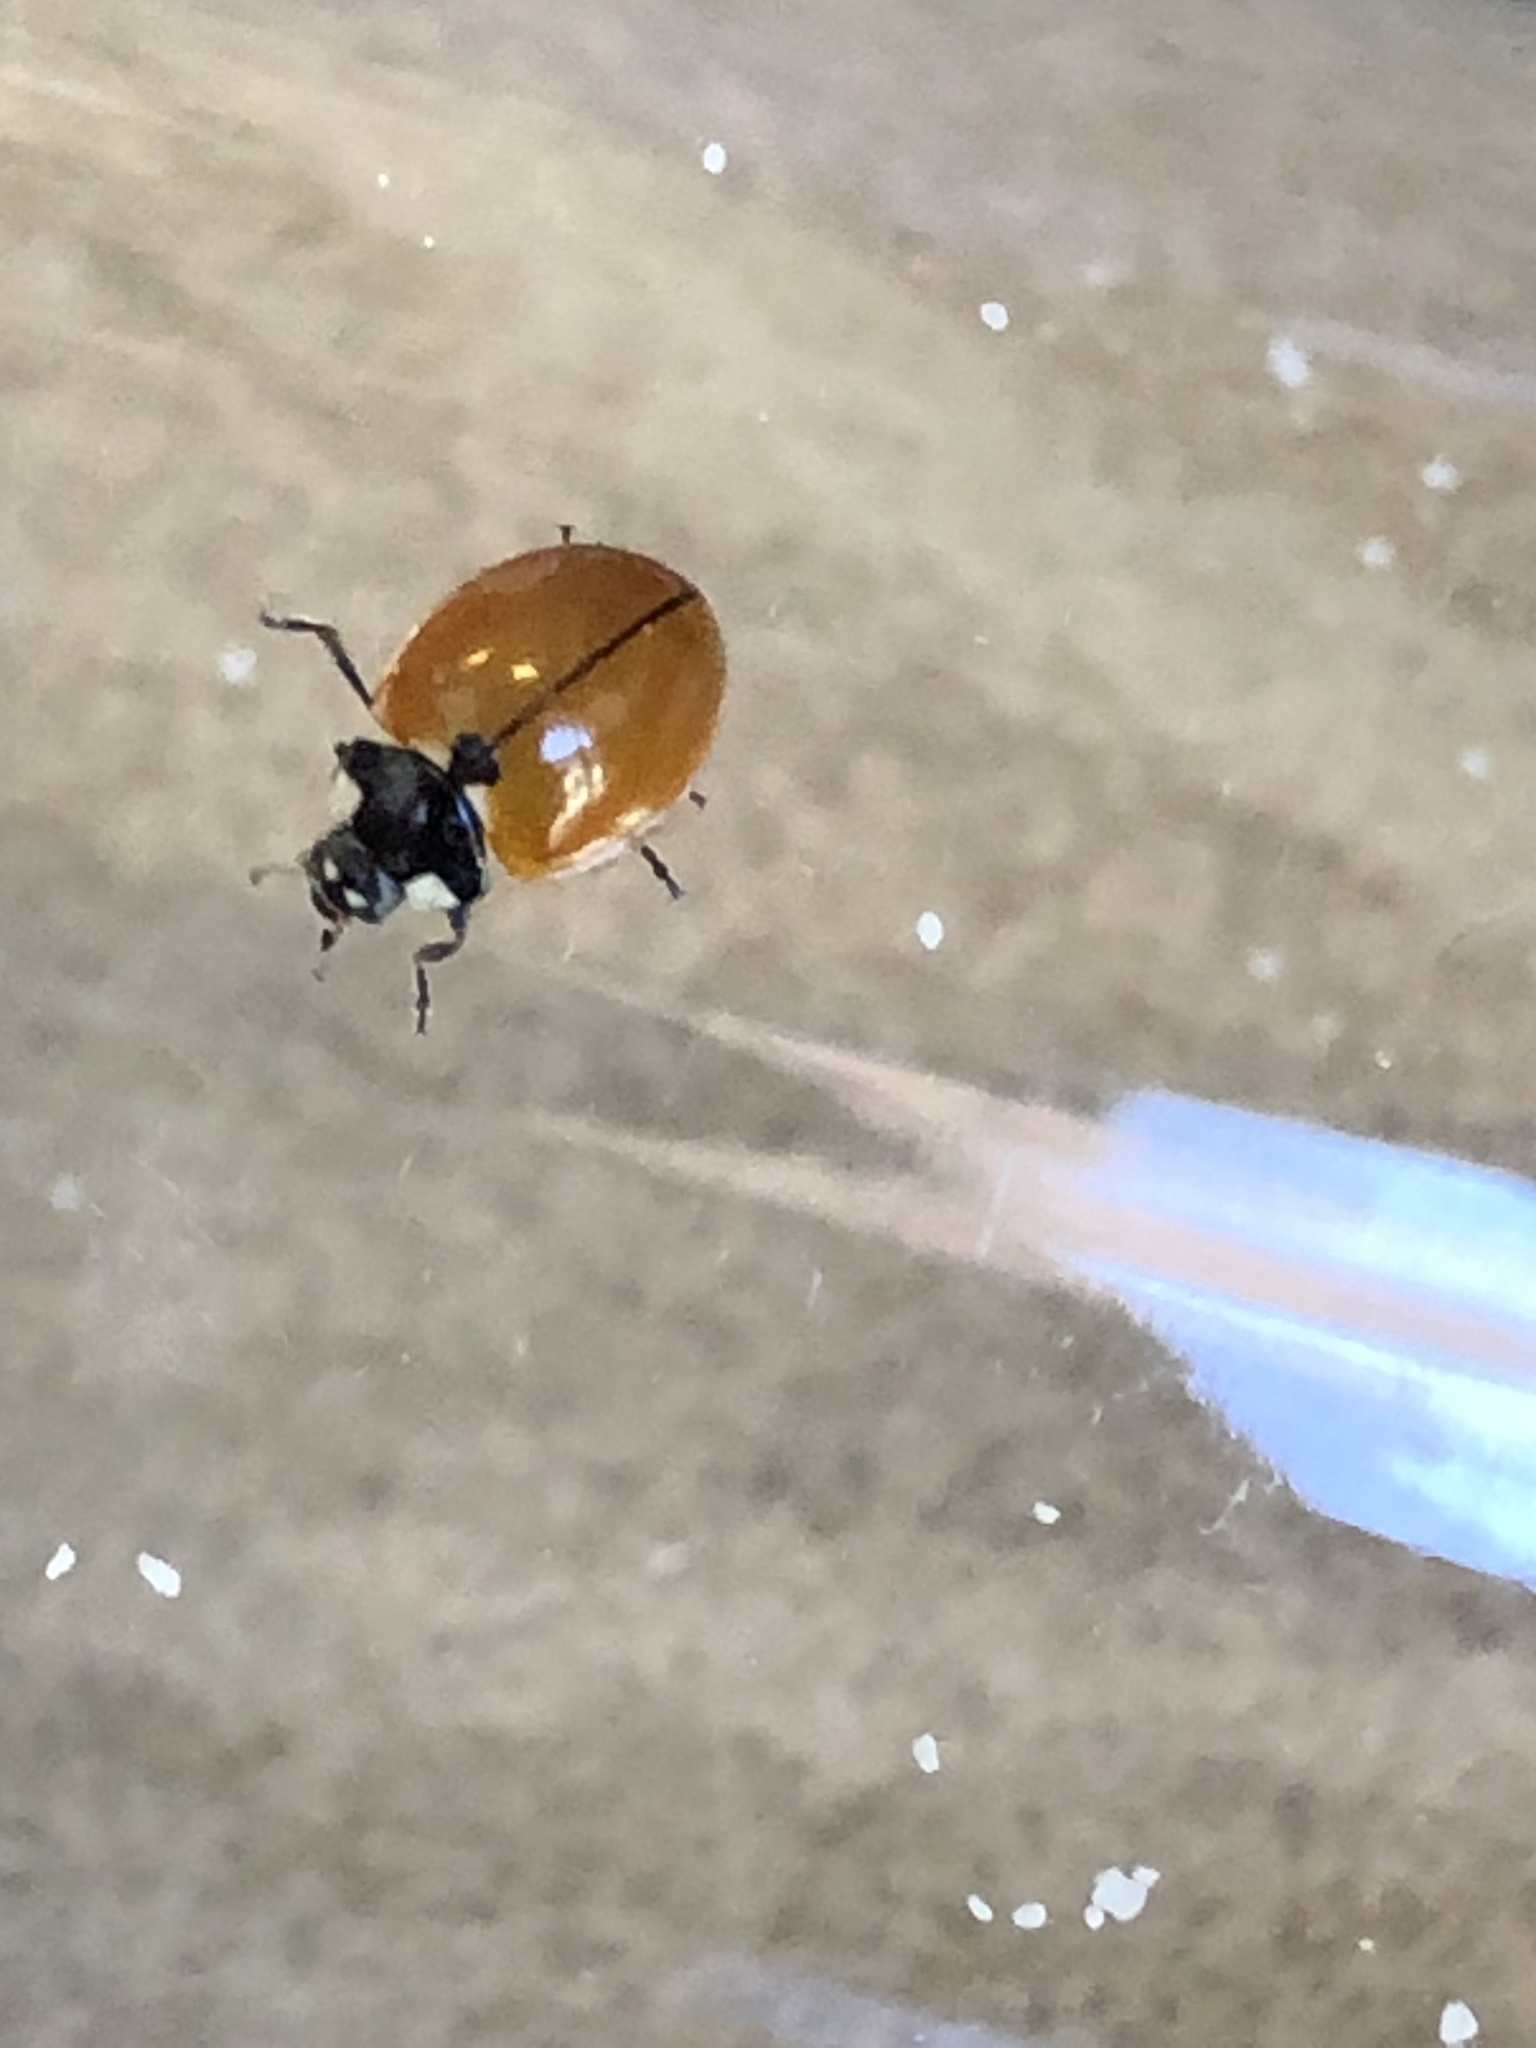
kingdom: Animalia
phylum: Arthropoda
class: Insecta
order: Coleoptera
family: Coccinellidae
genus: Coccinella
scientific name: Coccinella californica
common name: Lady beetle
